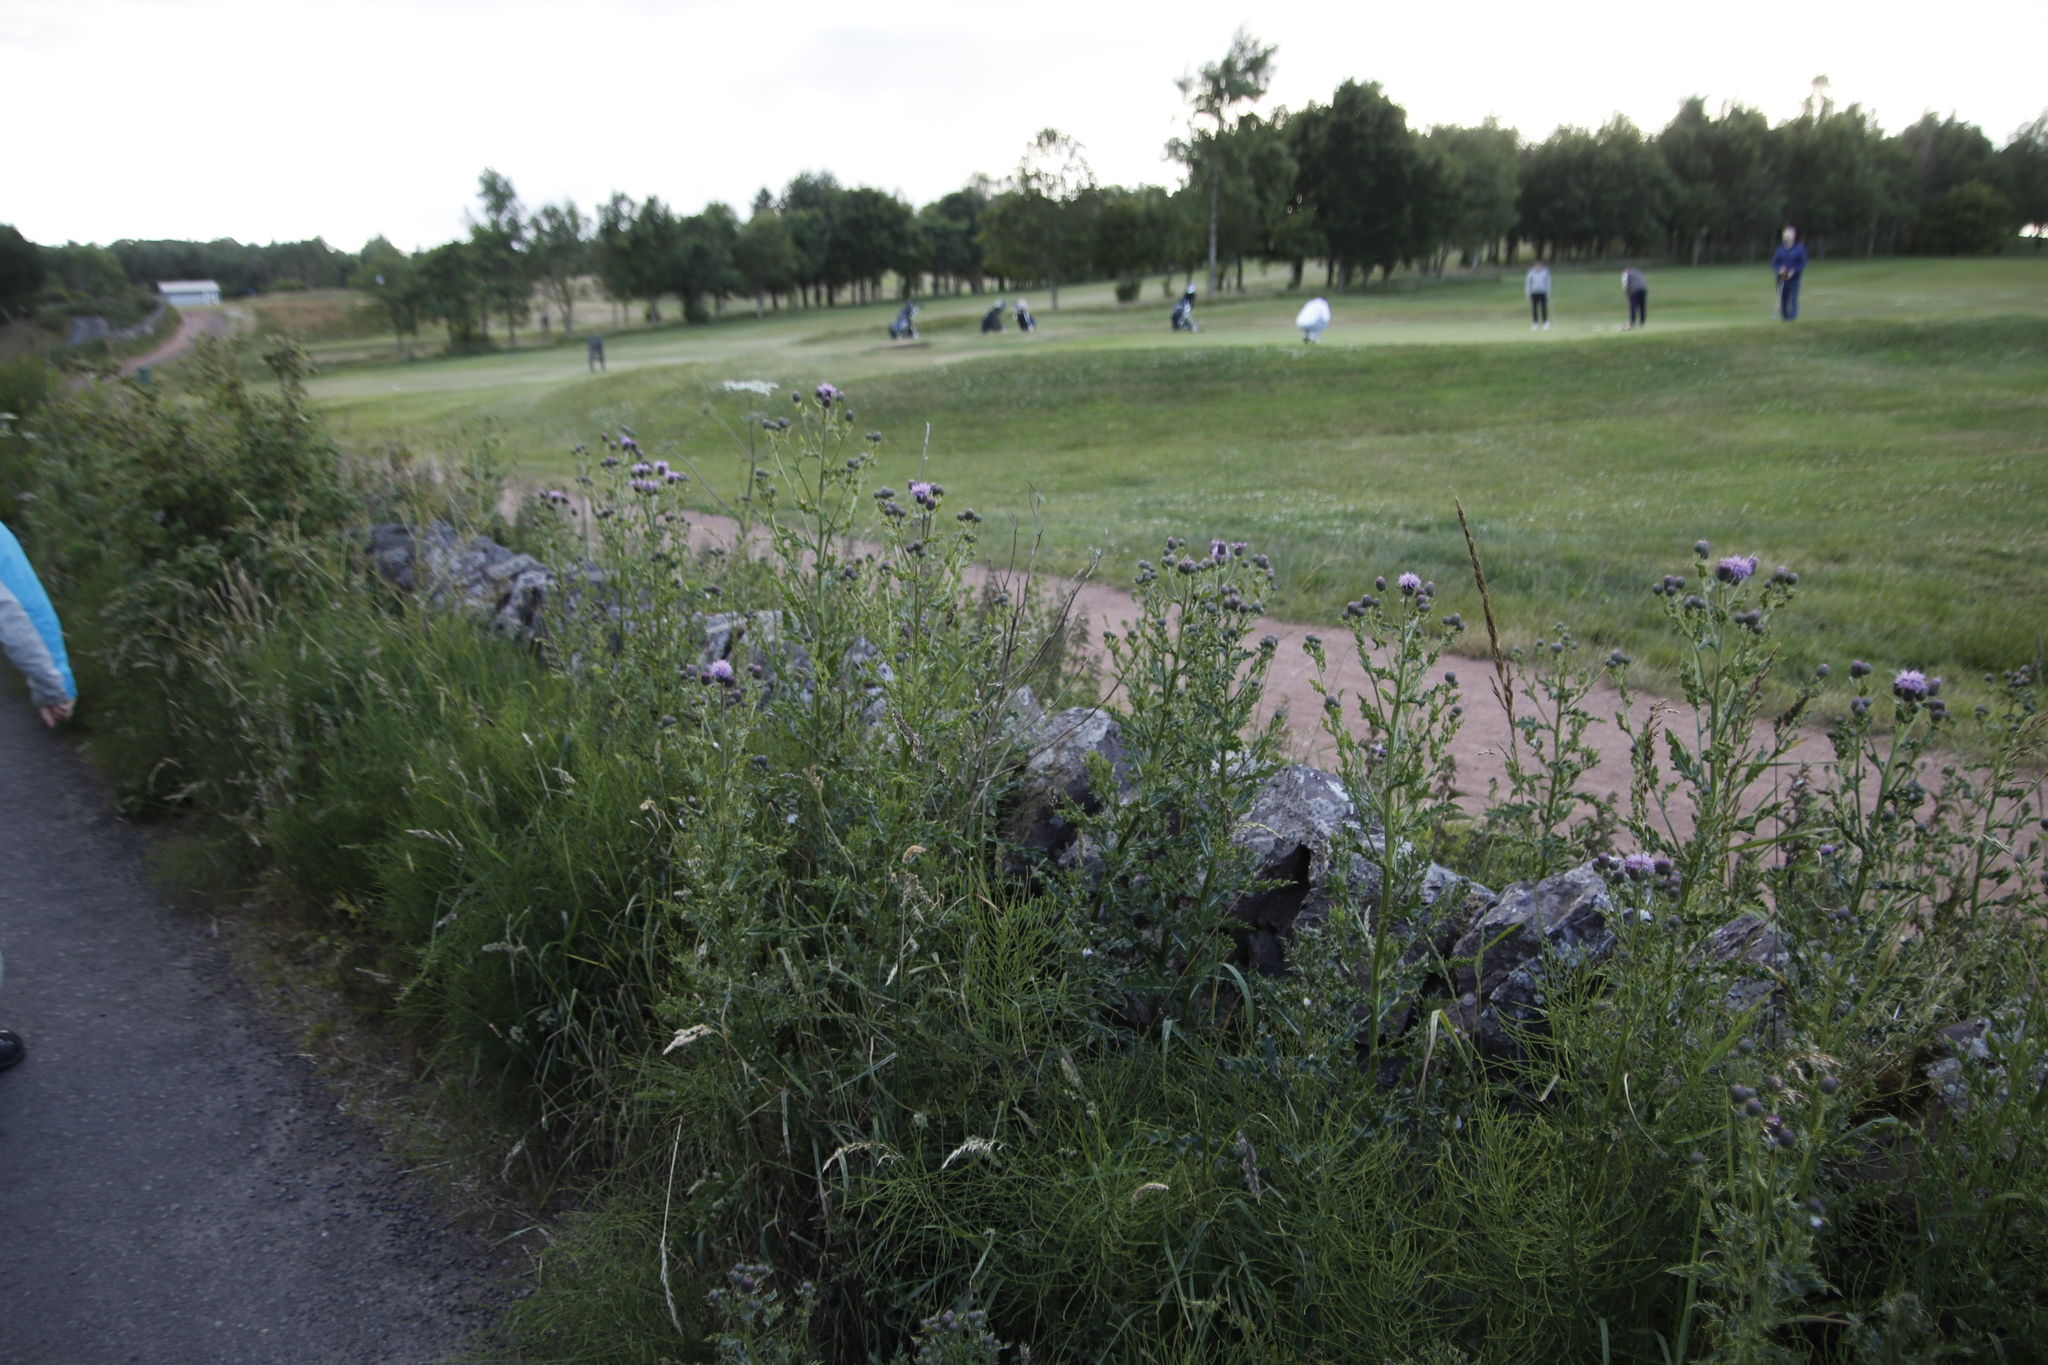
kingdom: Plantae
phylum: Tracheophyta
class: Magnoliopsida
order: Asterales
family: Asteraceae
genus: Cirsium
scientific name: Cirsium arvense
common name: Creeping thistle
